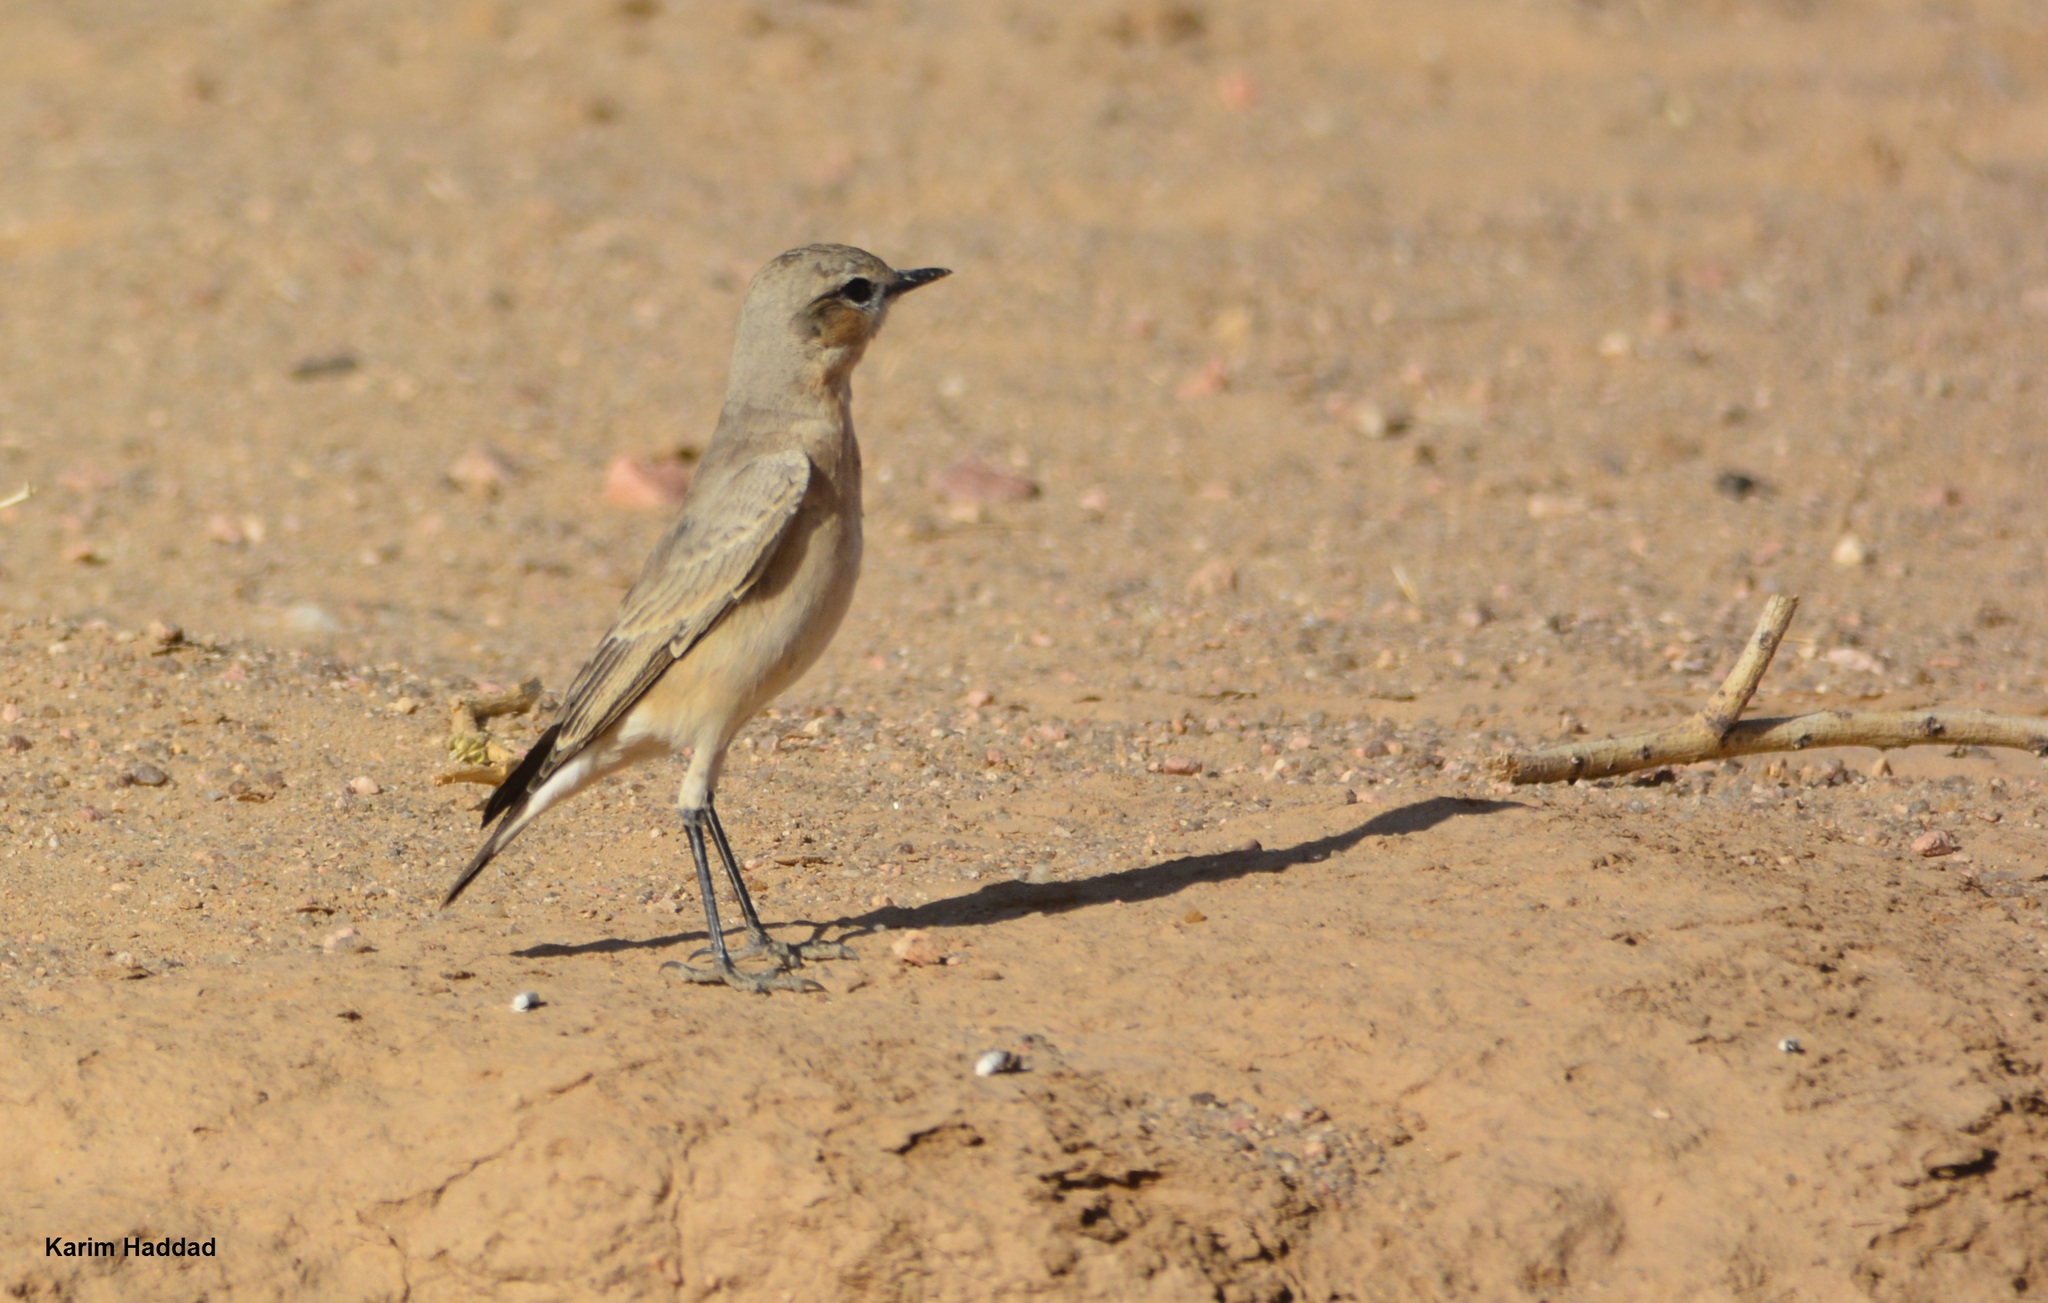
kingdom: Animalia
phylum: Chordata
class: Aves
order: Passeriformes
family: Muscicapidae
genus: Oenanthe
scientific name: Oenanthe isabellina
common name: Isabelline wheatear
